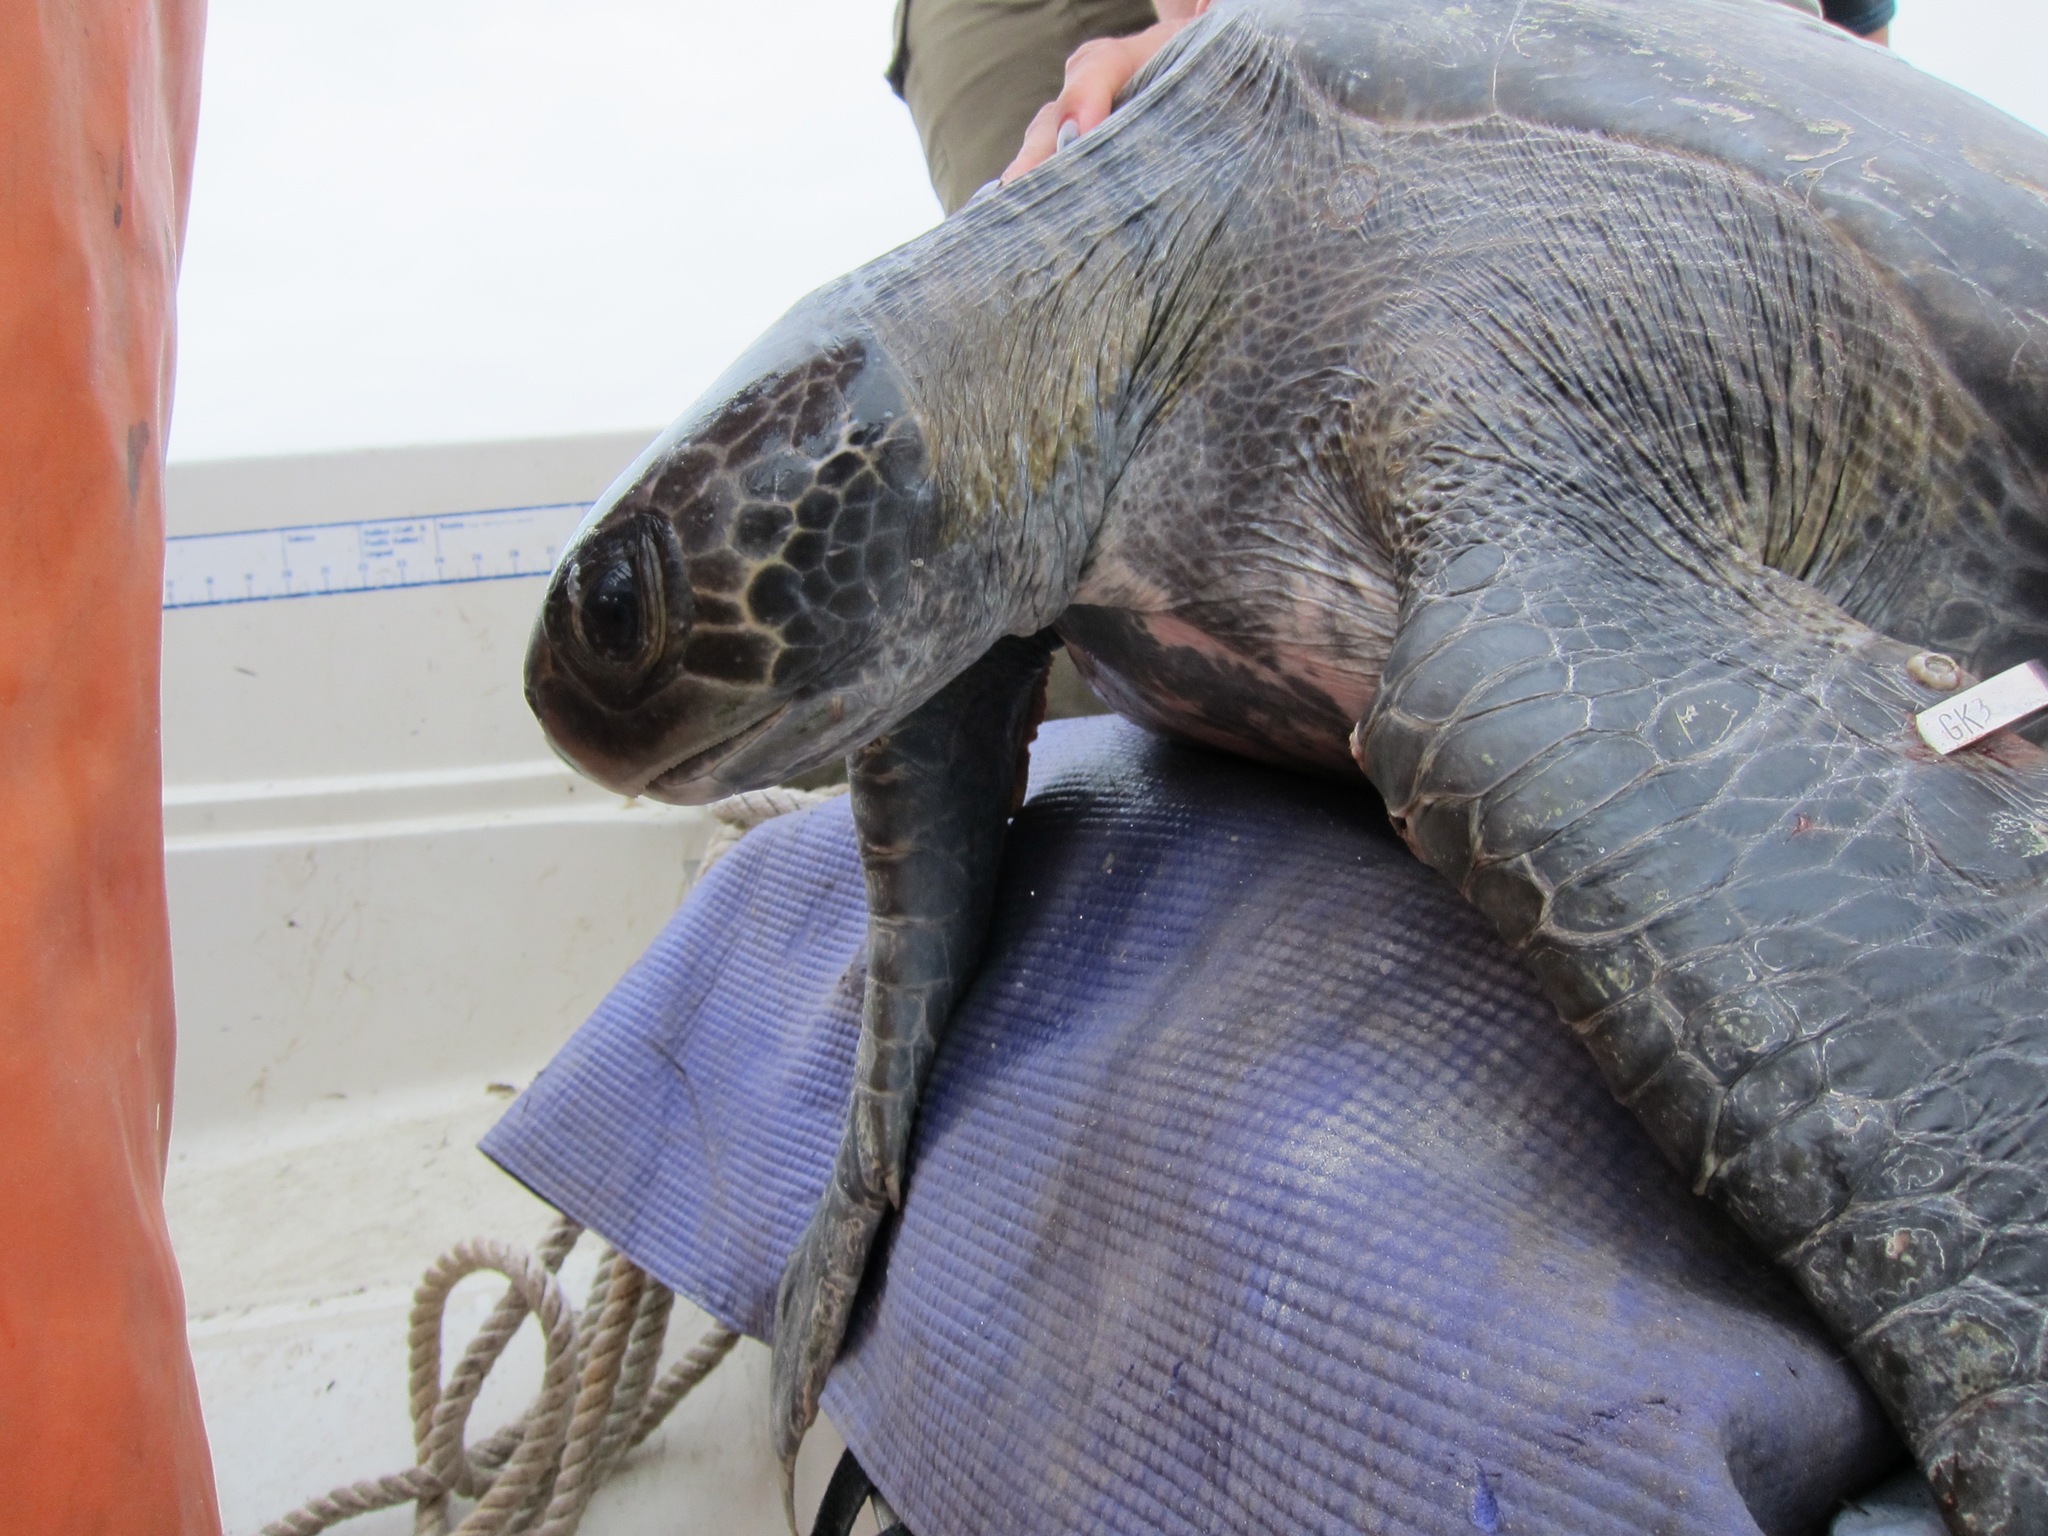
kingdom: Animalia
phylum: Chordata
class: Testudines
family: Cheloniidae
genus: Chelonia
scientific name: Chelonia mydas
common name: Green turtle
